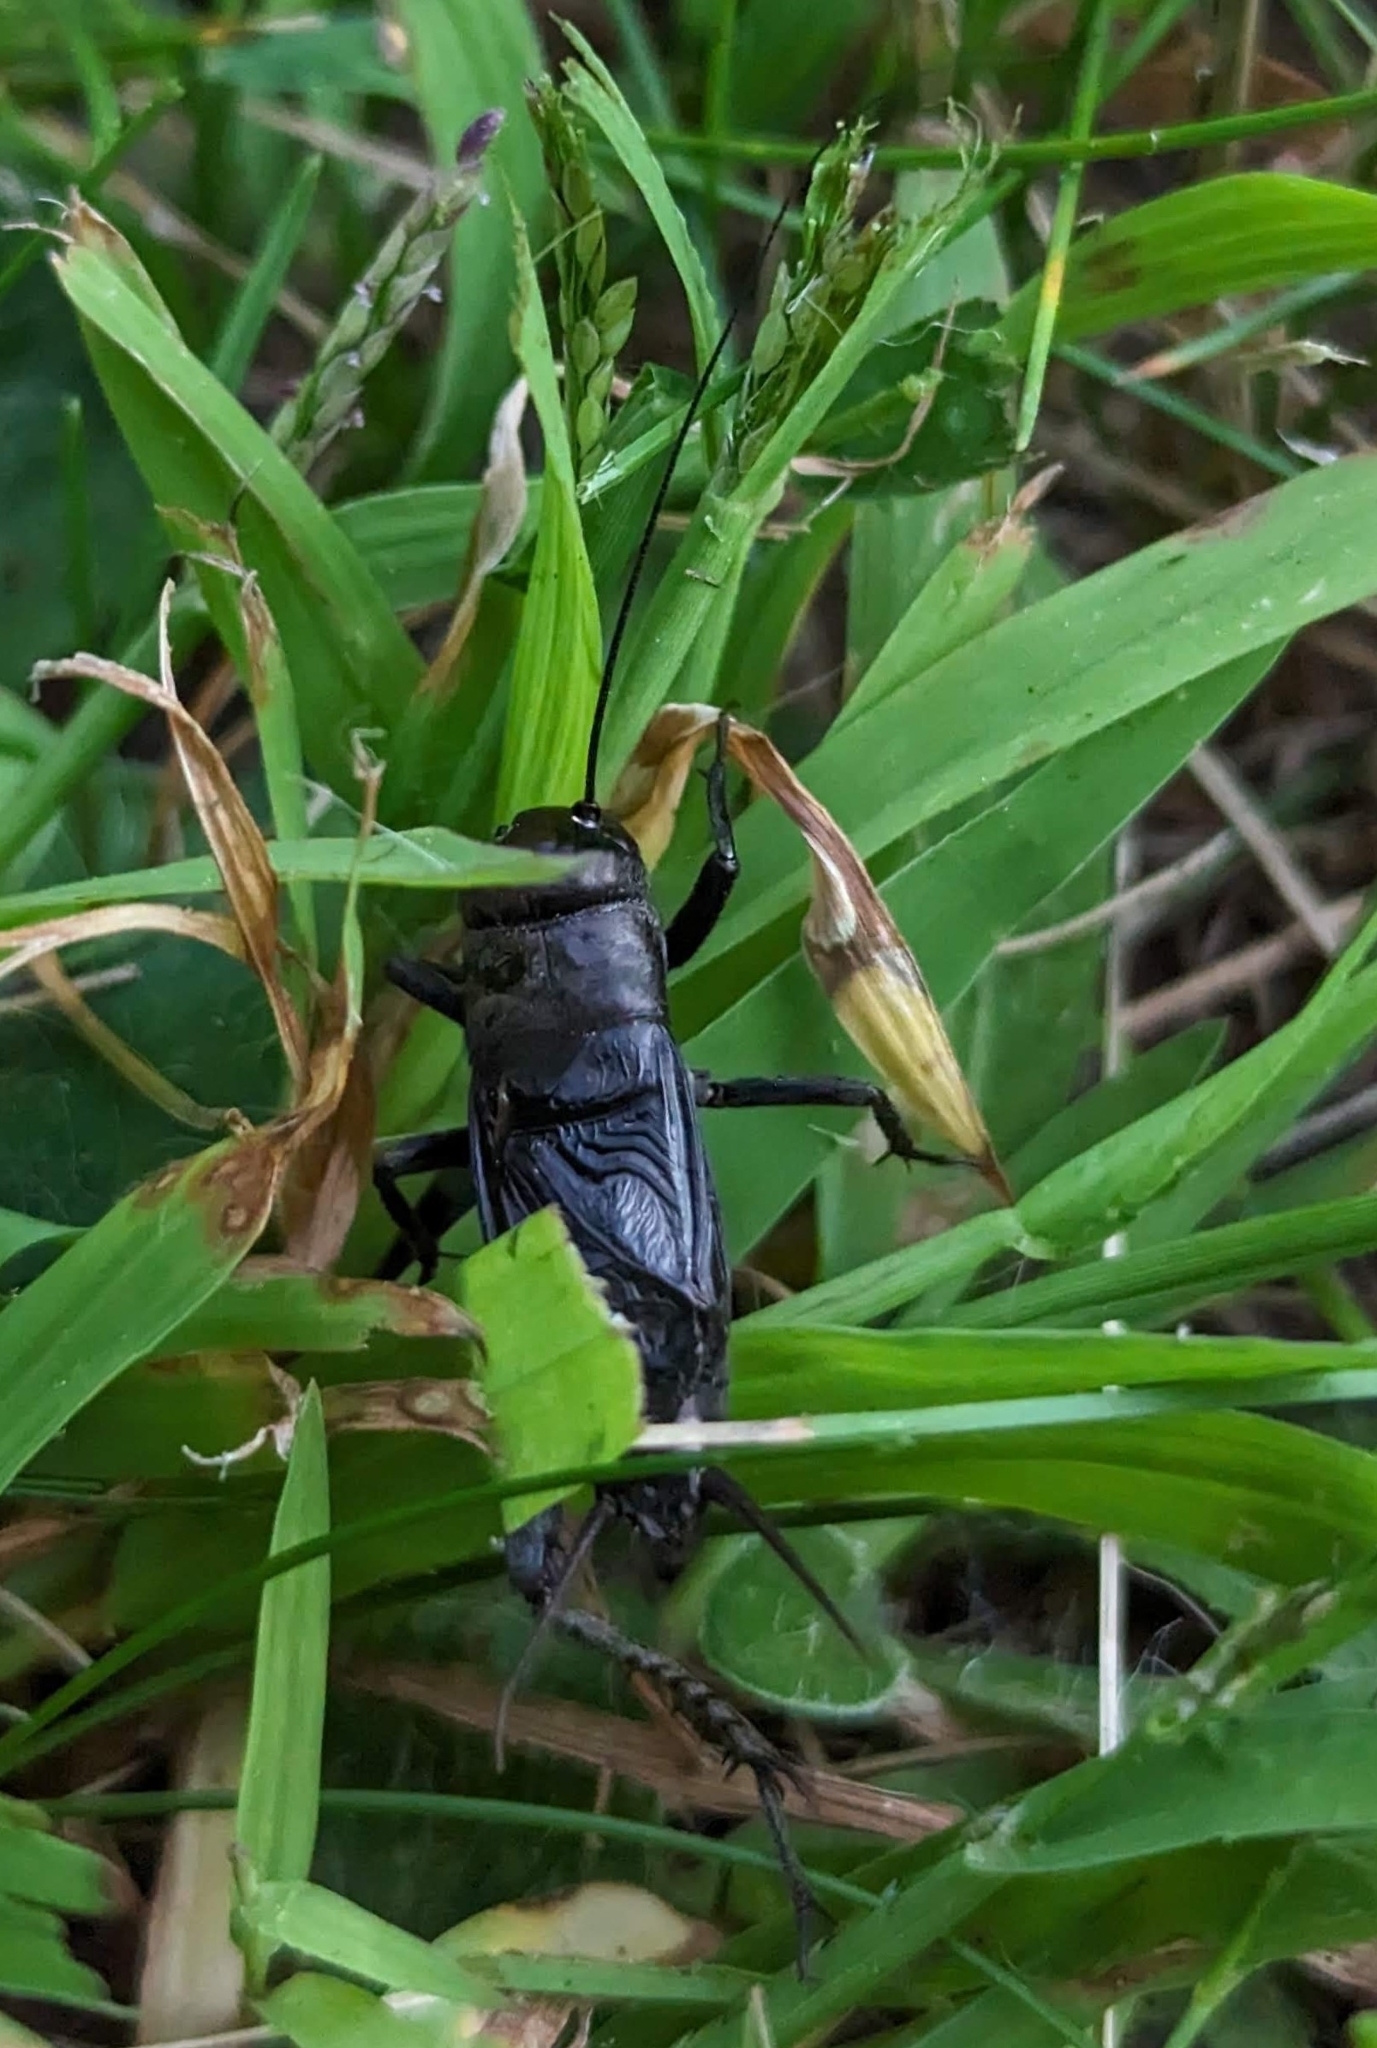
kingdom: Animalia
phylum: Arthropoda
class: Insecta
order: Orthoptera
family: Gryllidae
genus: Gryllus
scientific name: Gryllus pennsylvanicus
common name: Fall field cricket
